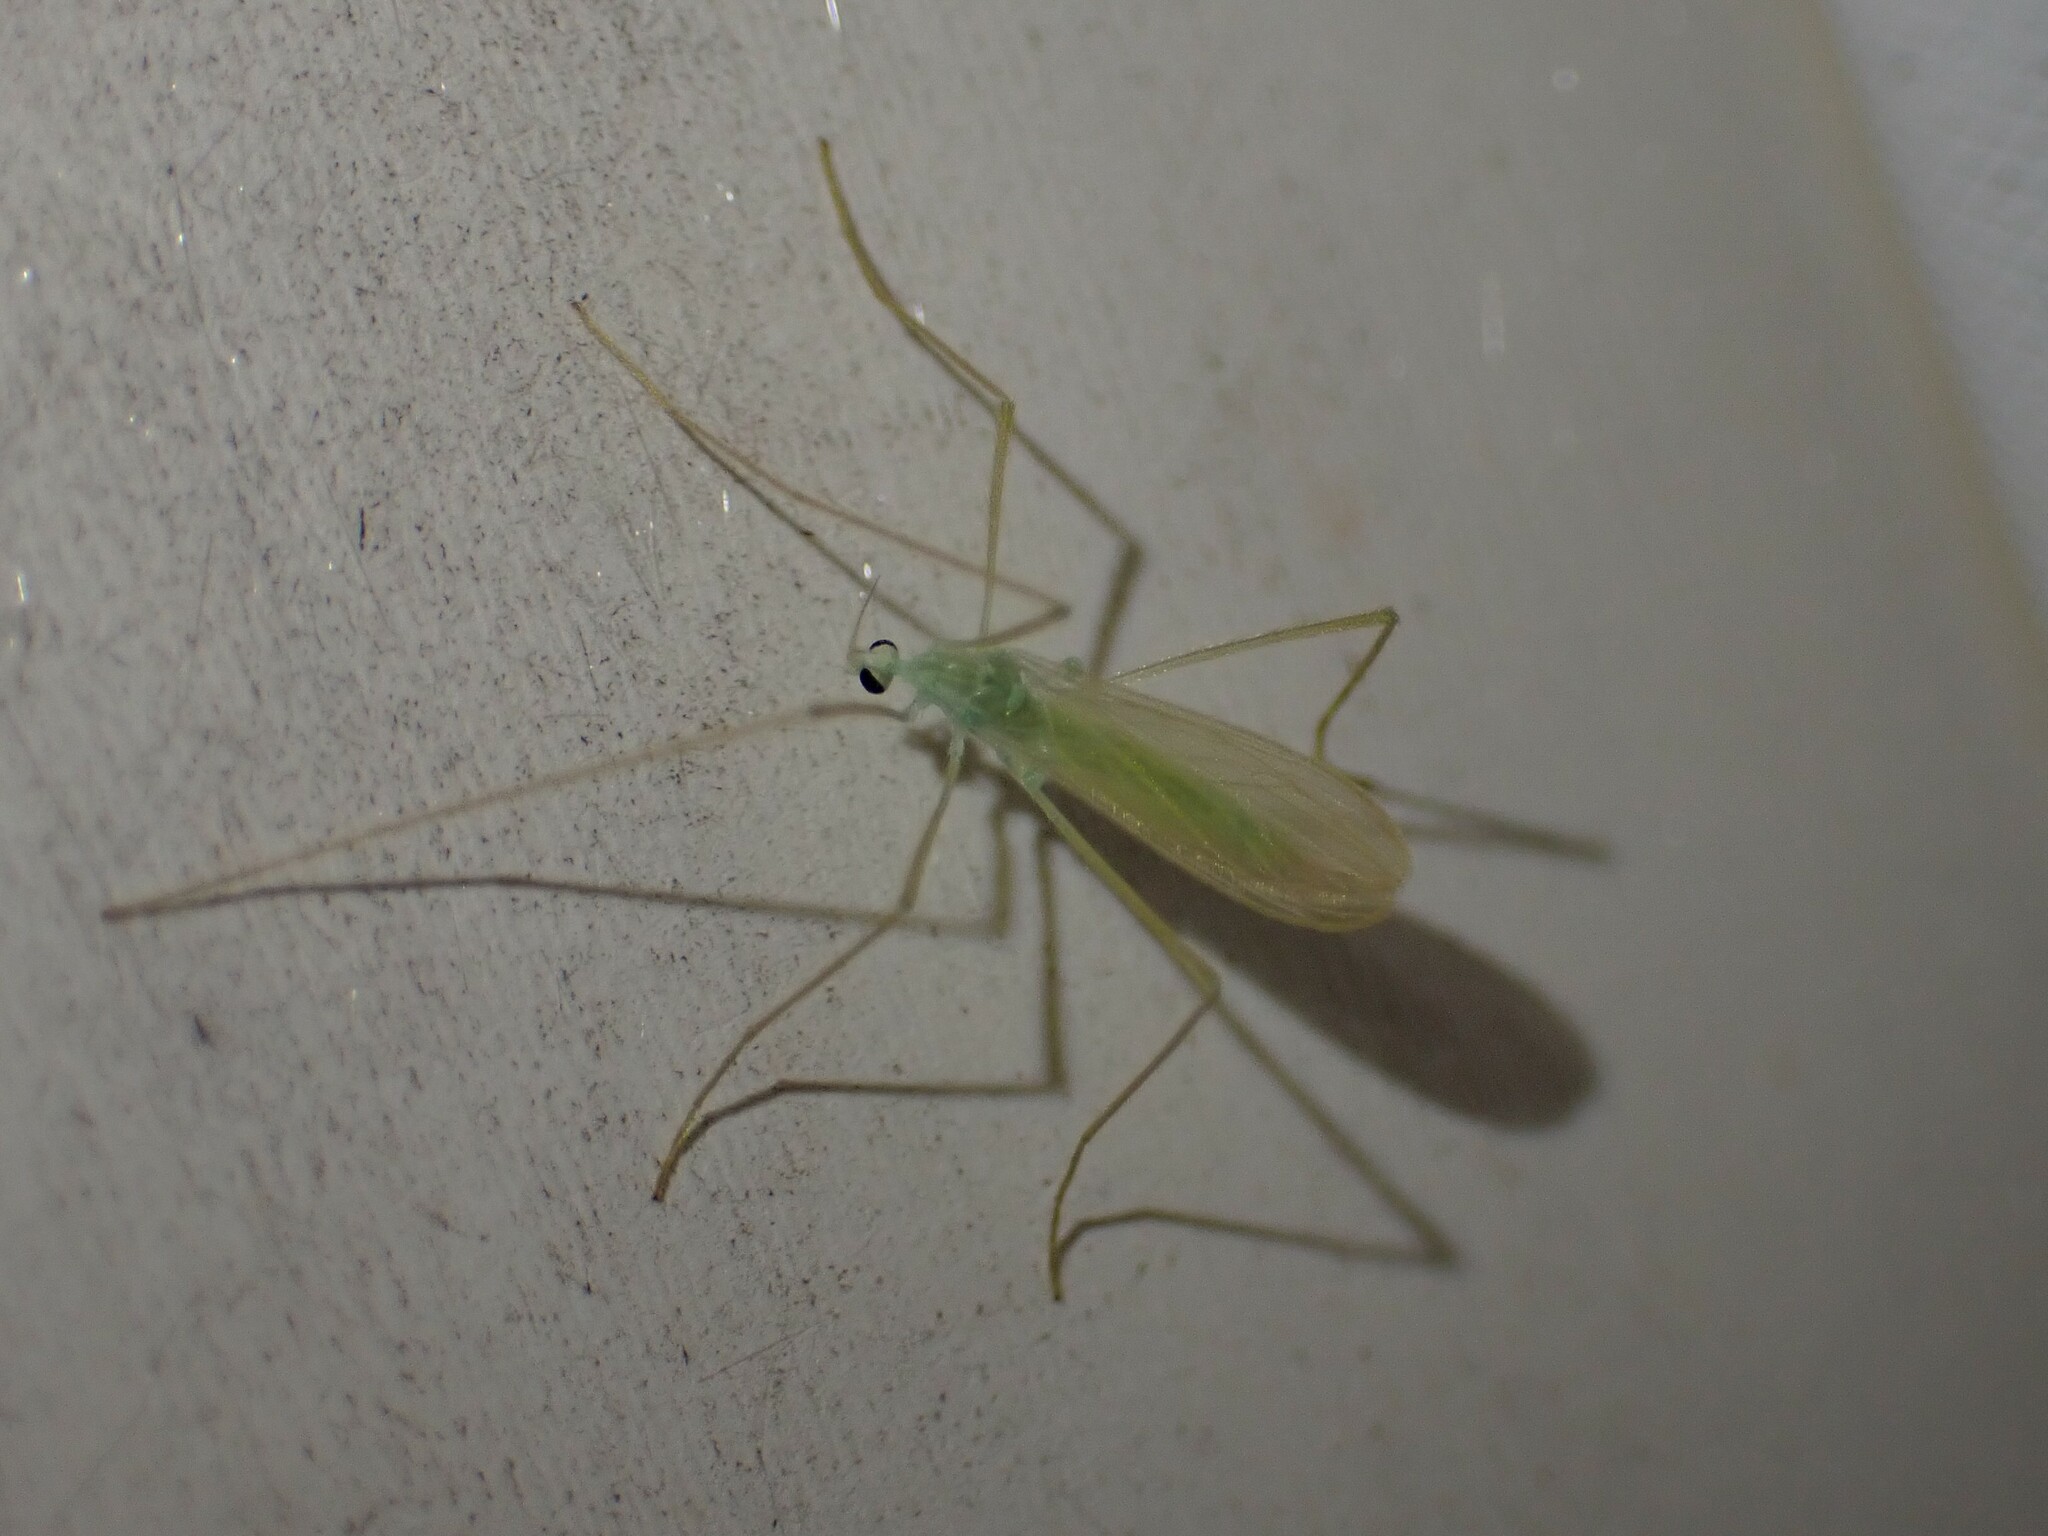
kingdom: Animalia
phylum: Arthropoda
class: Insecta
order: Diptera
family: Limoniidae
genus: Erioptera
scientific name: Erioptera
